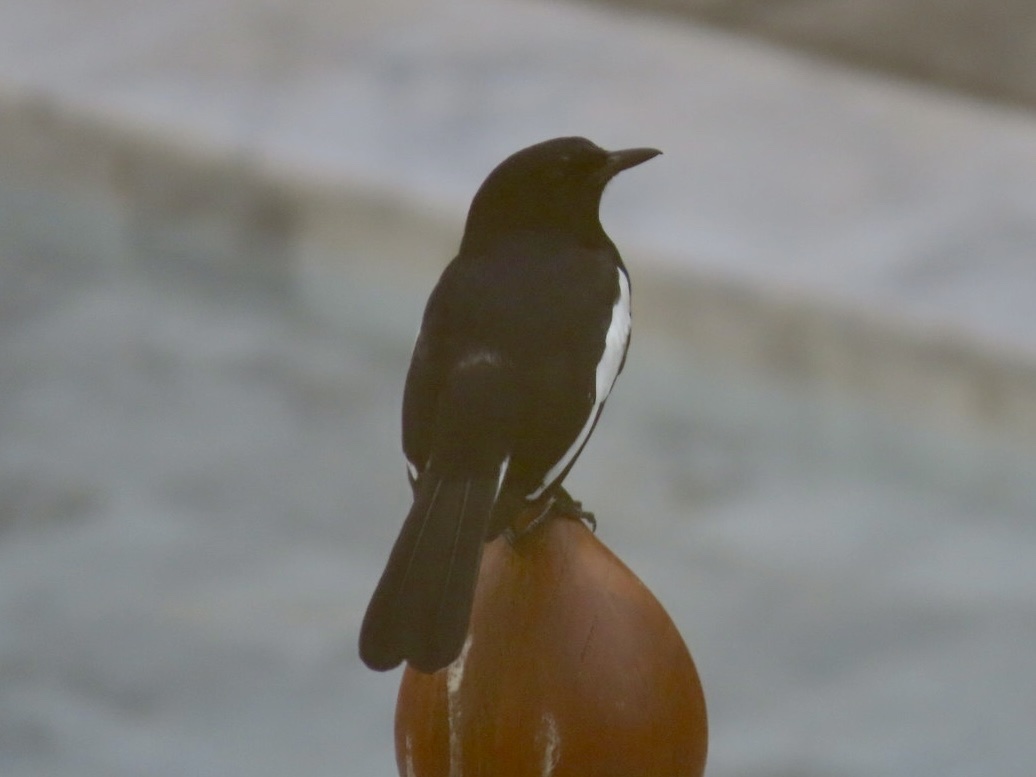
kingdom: Animalia
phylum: Chordata
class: Aves
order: Passeriformes
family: Muscicapidae
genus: Copsychus
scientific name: Copsychus saularis
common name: Oriental magpie-robin
